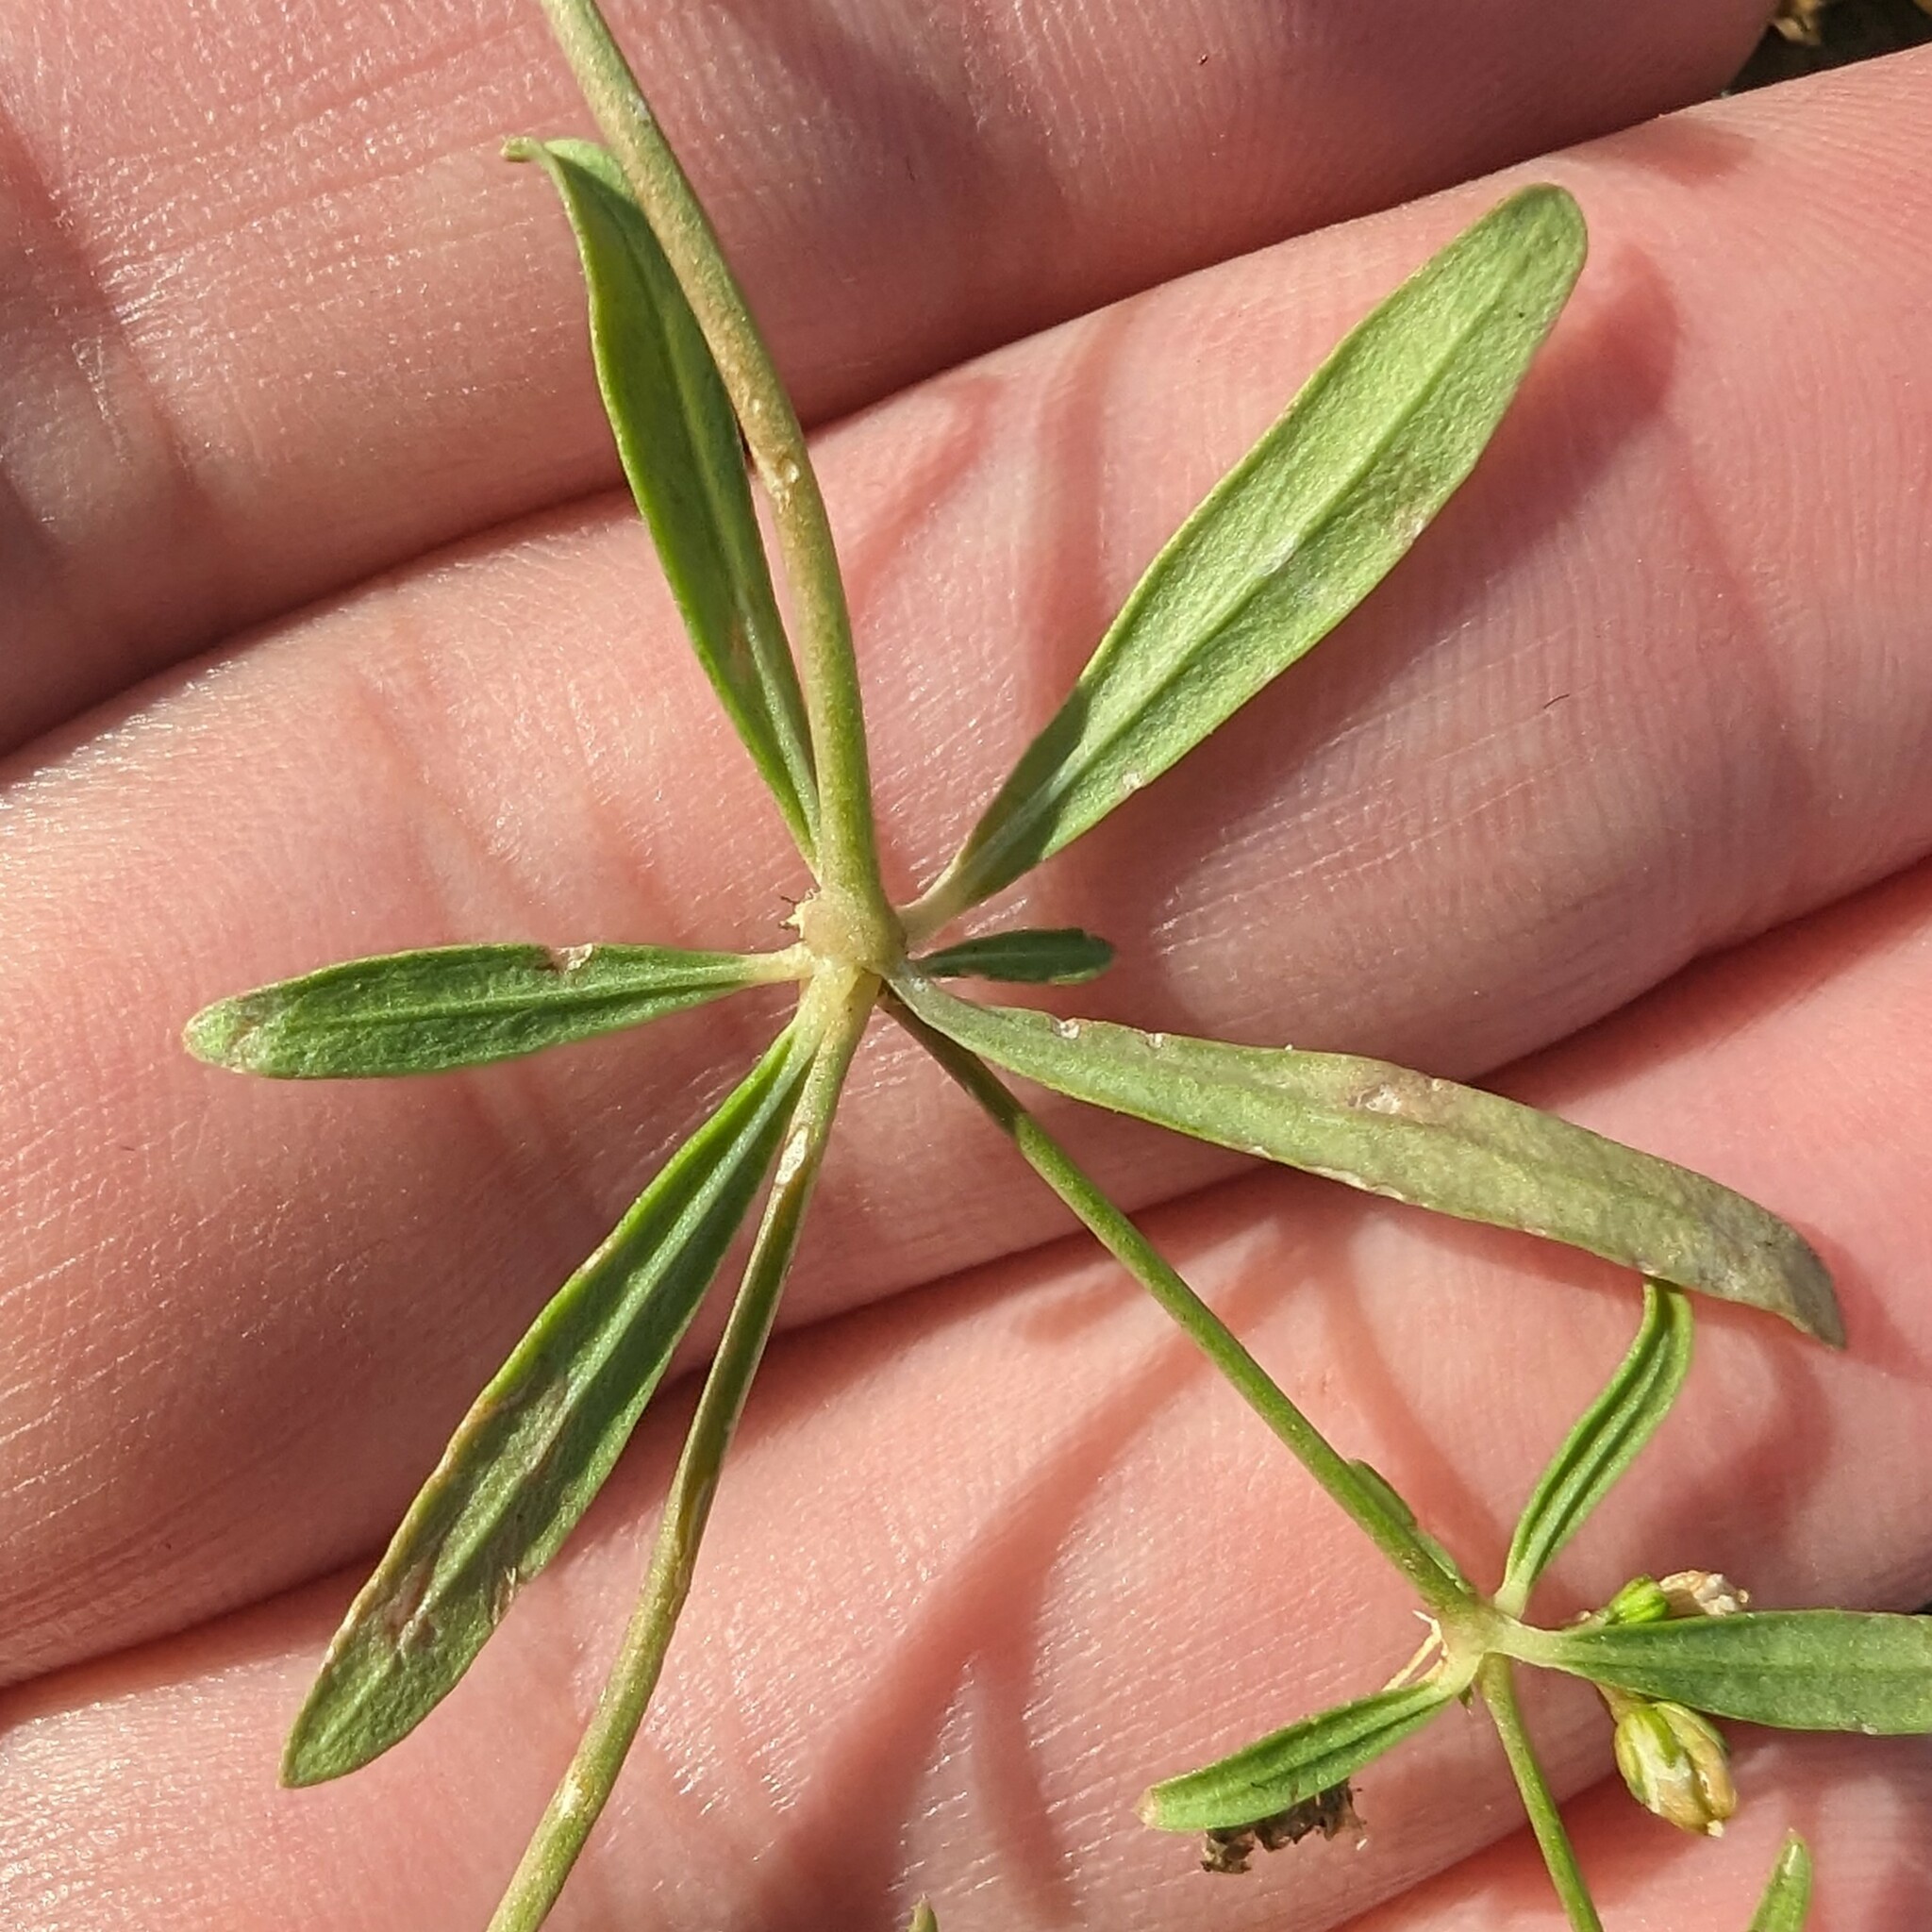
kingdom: Plantae
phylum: Tracheophyta
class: Magnoliopsida
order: Caryophyllales
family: Molluginaceae
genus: Mollugo
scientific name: Mollugo verticillata
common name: Green carpetweed
